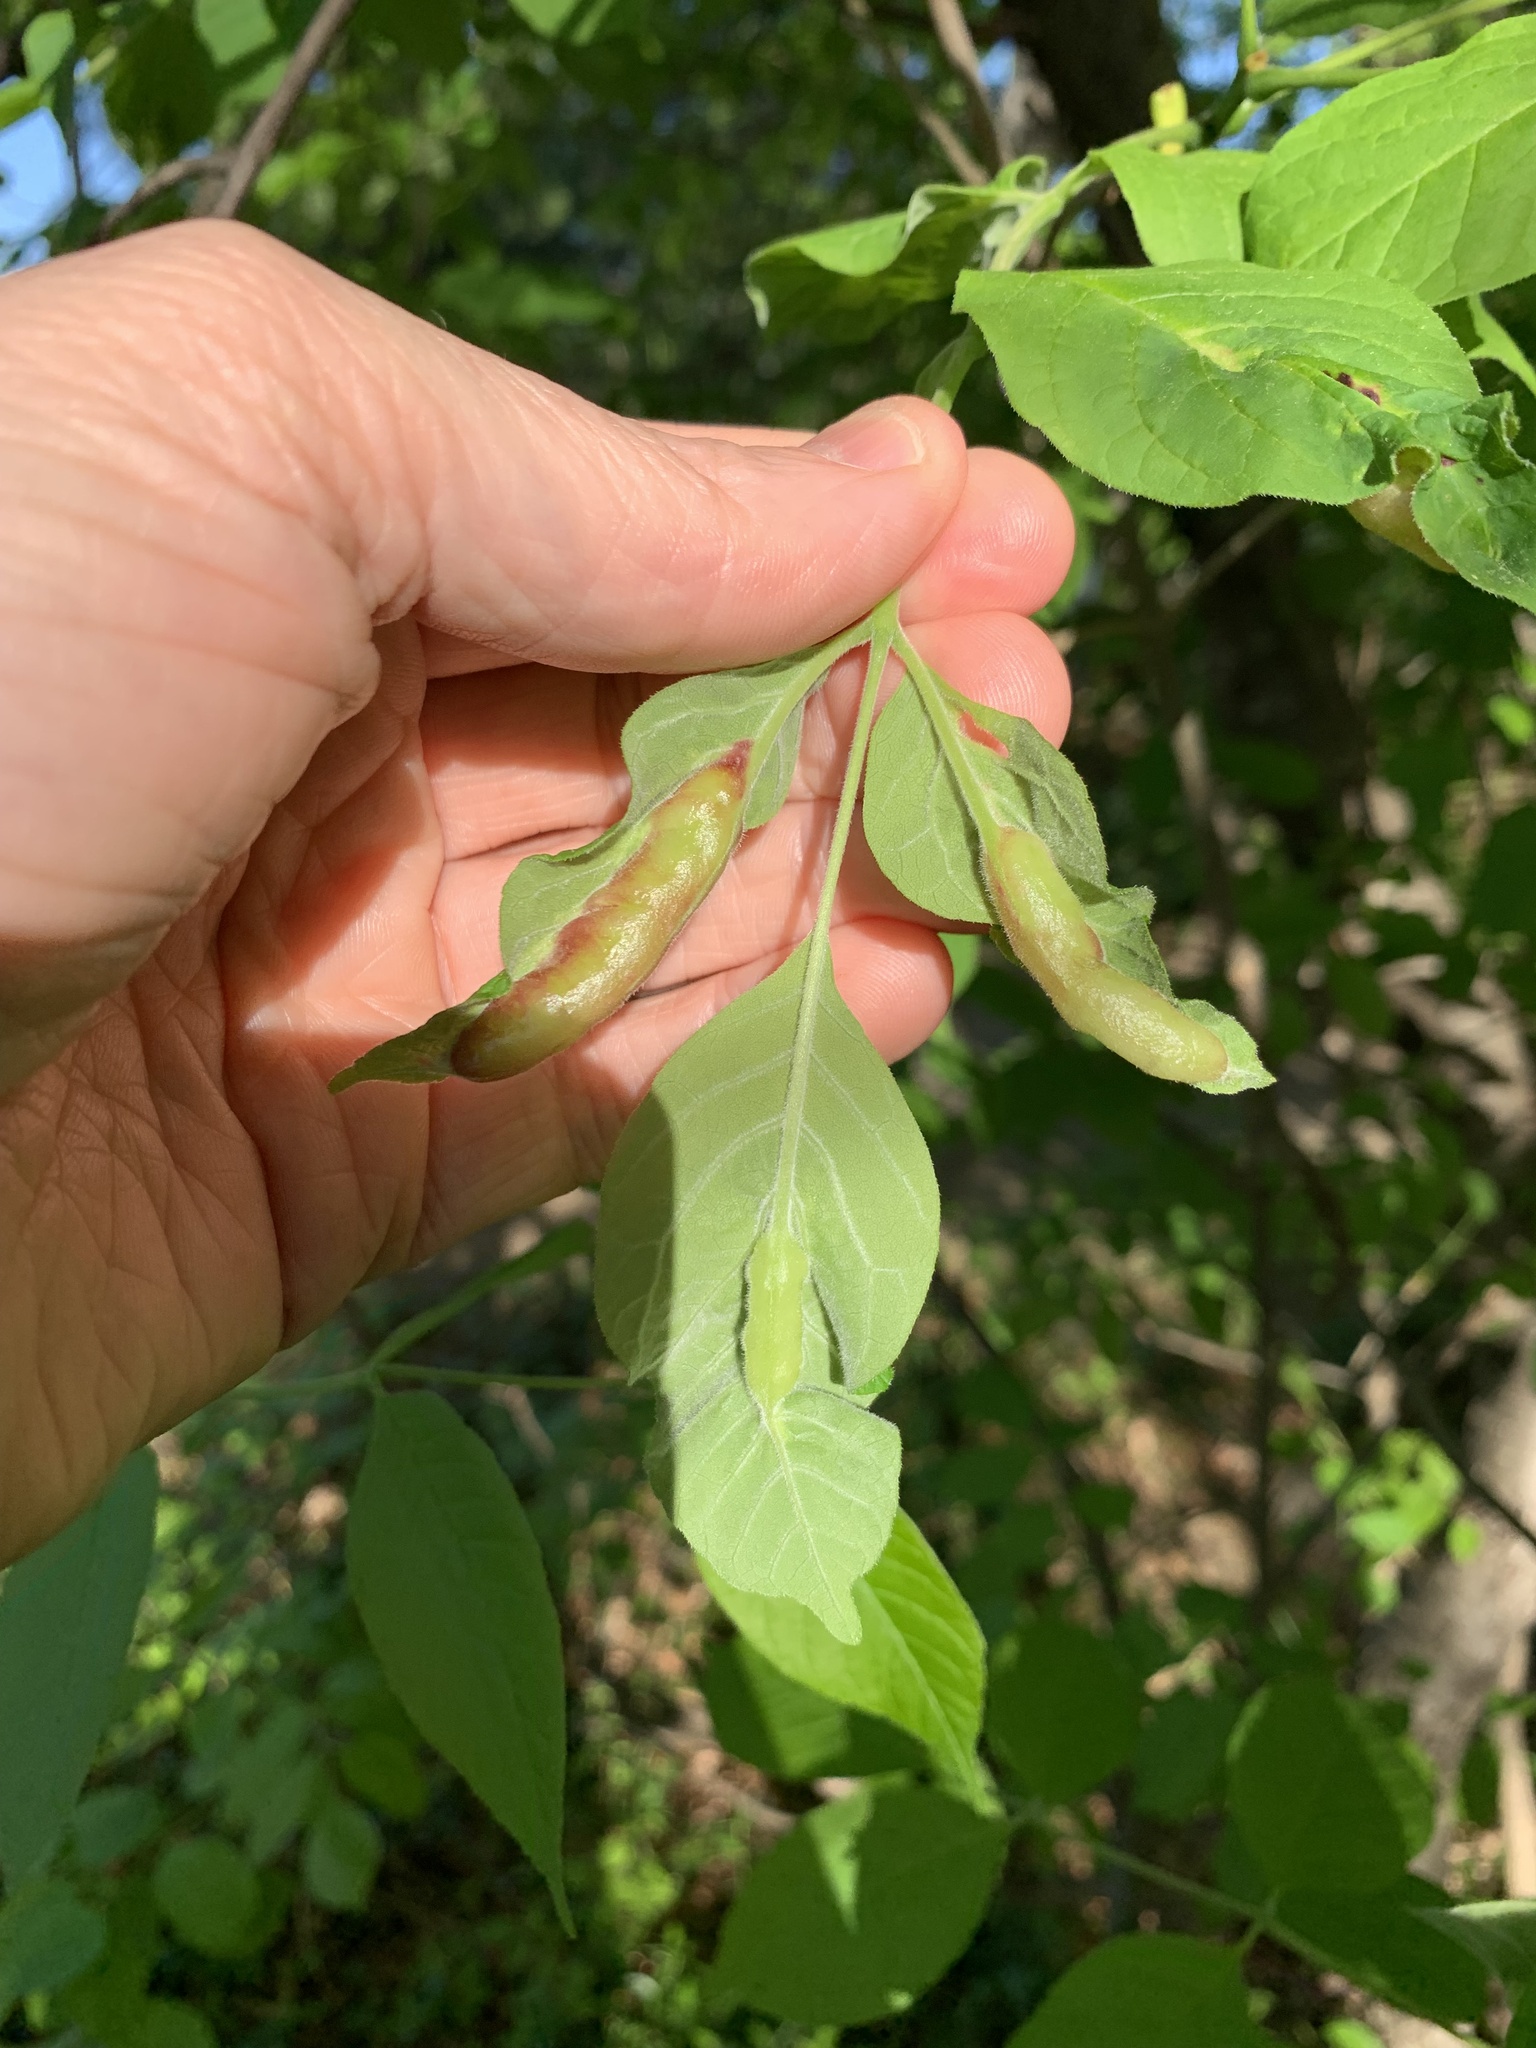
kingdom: Animalia
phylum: Arthropoda
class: Insecta
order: Diptera
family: Cecidomyiidae
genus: Dasineura
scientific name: Dasineura tumidosae
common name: Ash petiole gall midge
